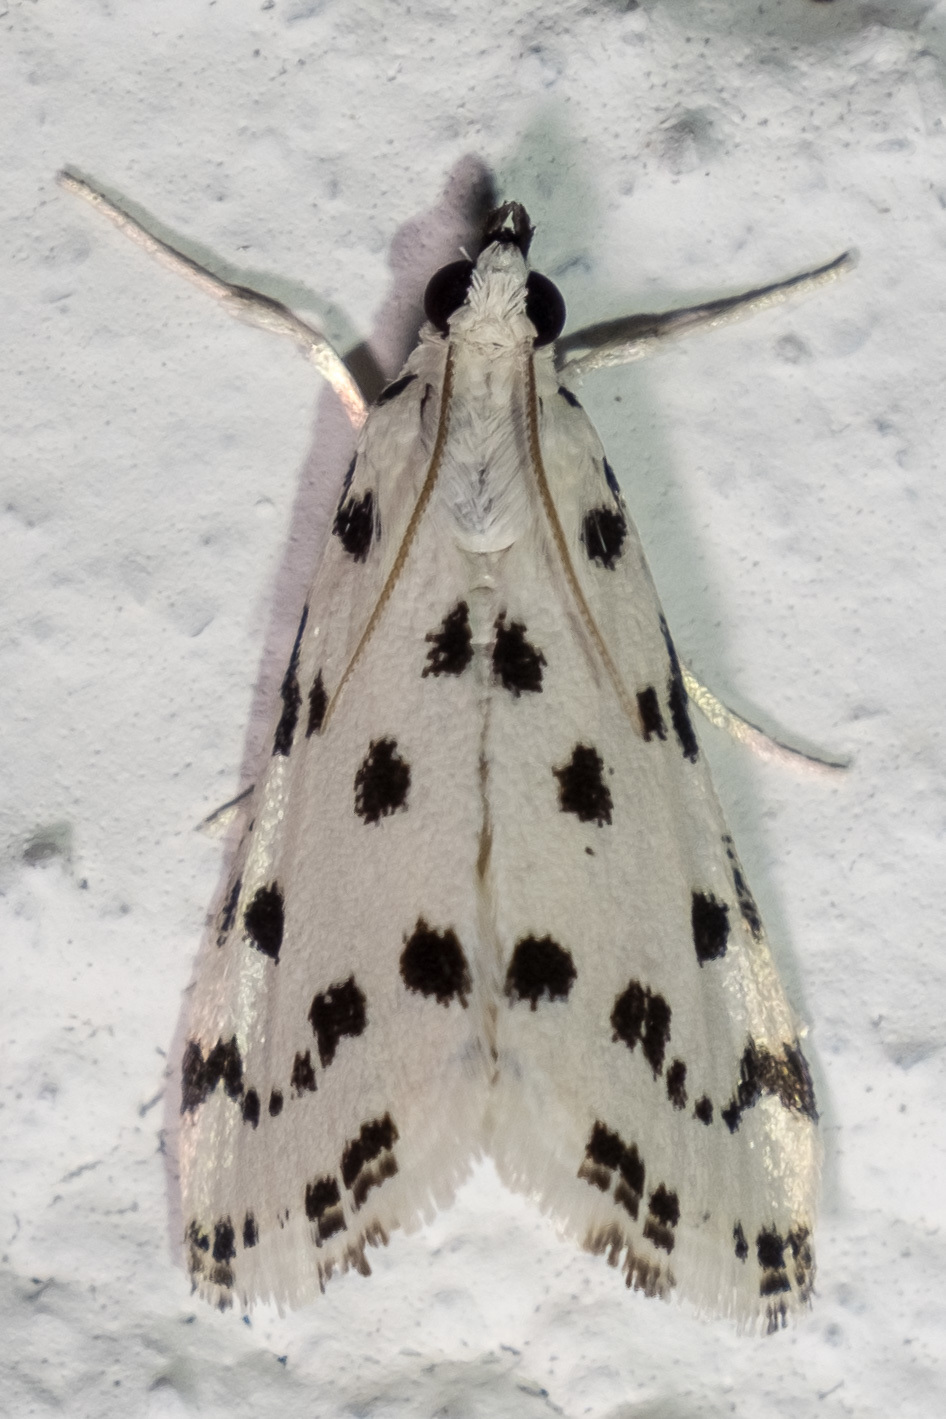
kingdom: Animalia
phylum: Arthropoda
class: Insecta
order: Lepidoptera
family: Crambidae
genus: Eustixia
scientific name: Eustixia pupula
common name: American cabbage pearl
